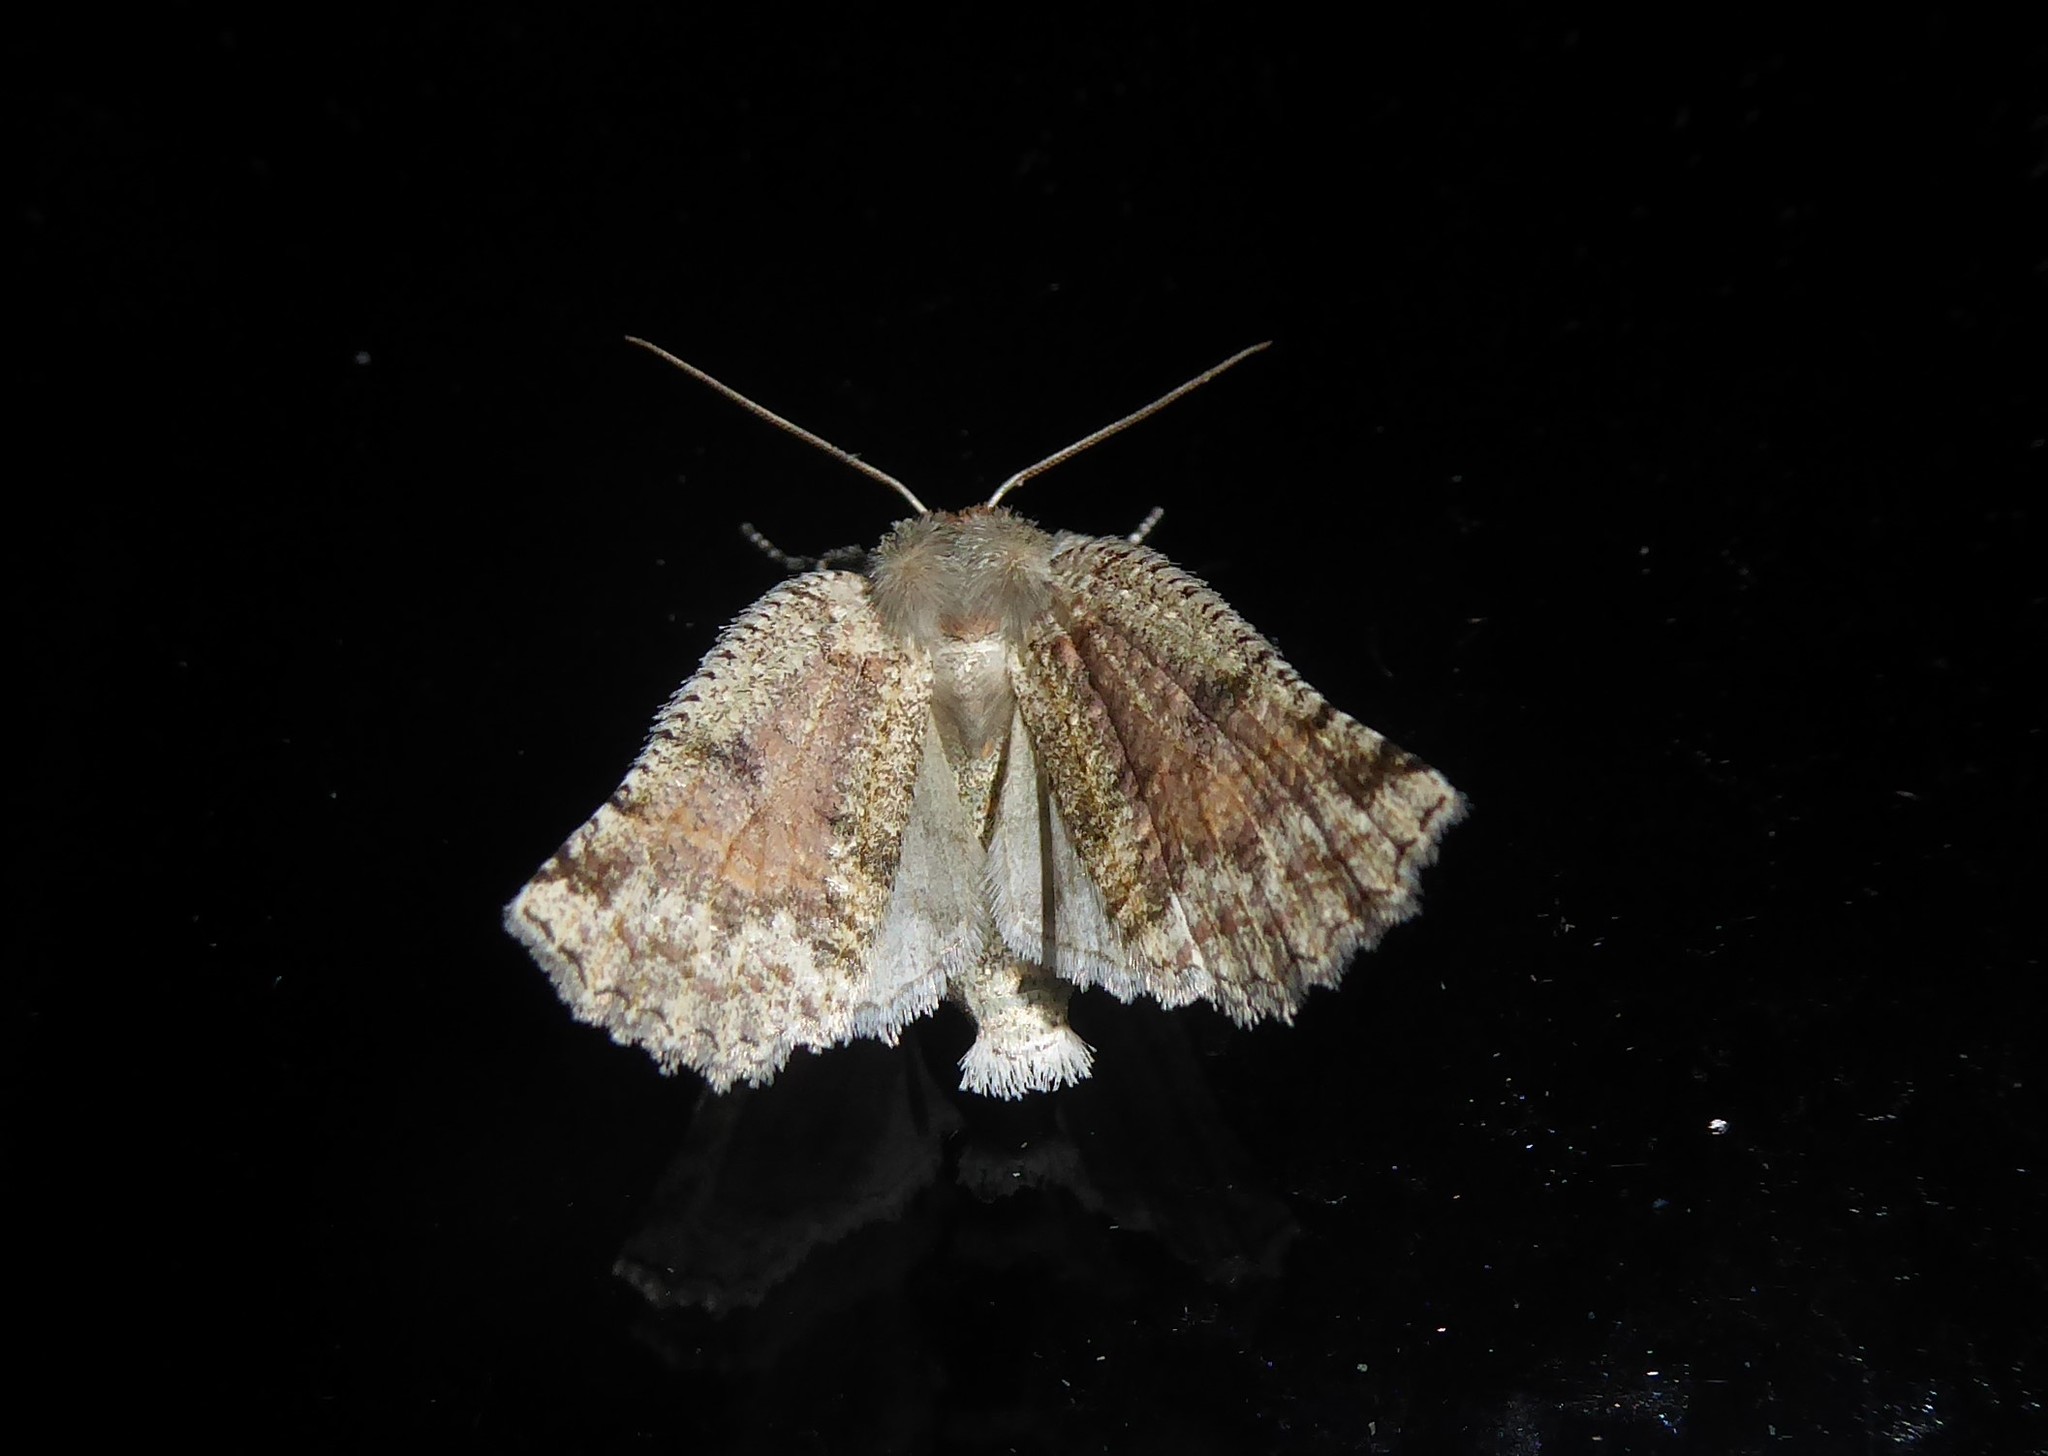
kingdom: Animalia
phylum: Arthropoda
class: Insecta
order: Lepidoptera
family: Geometridae
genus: Declana
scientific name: Declana floccosa
